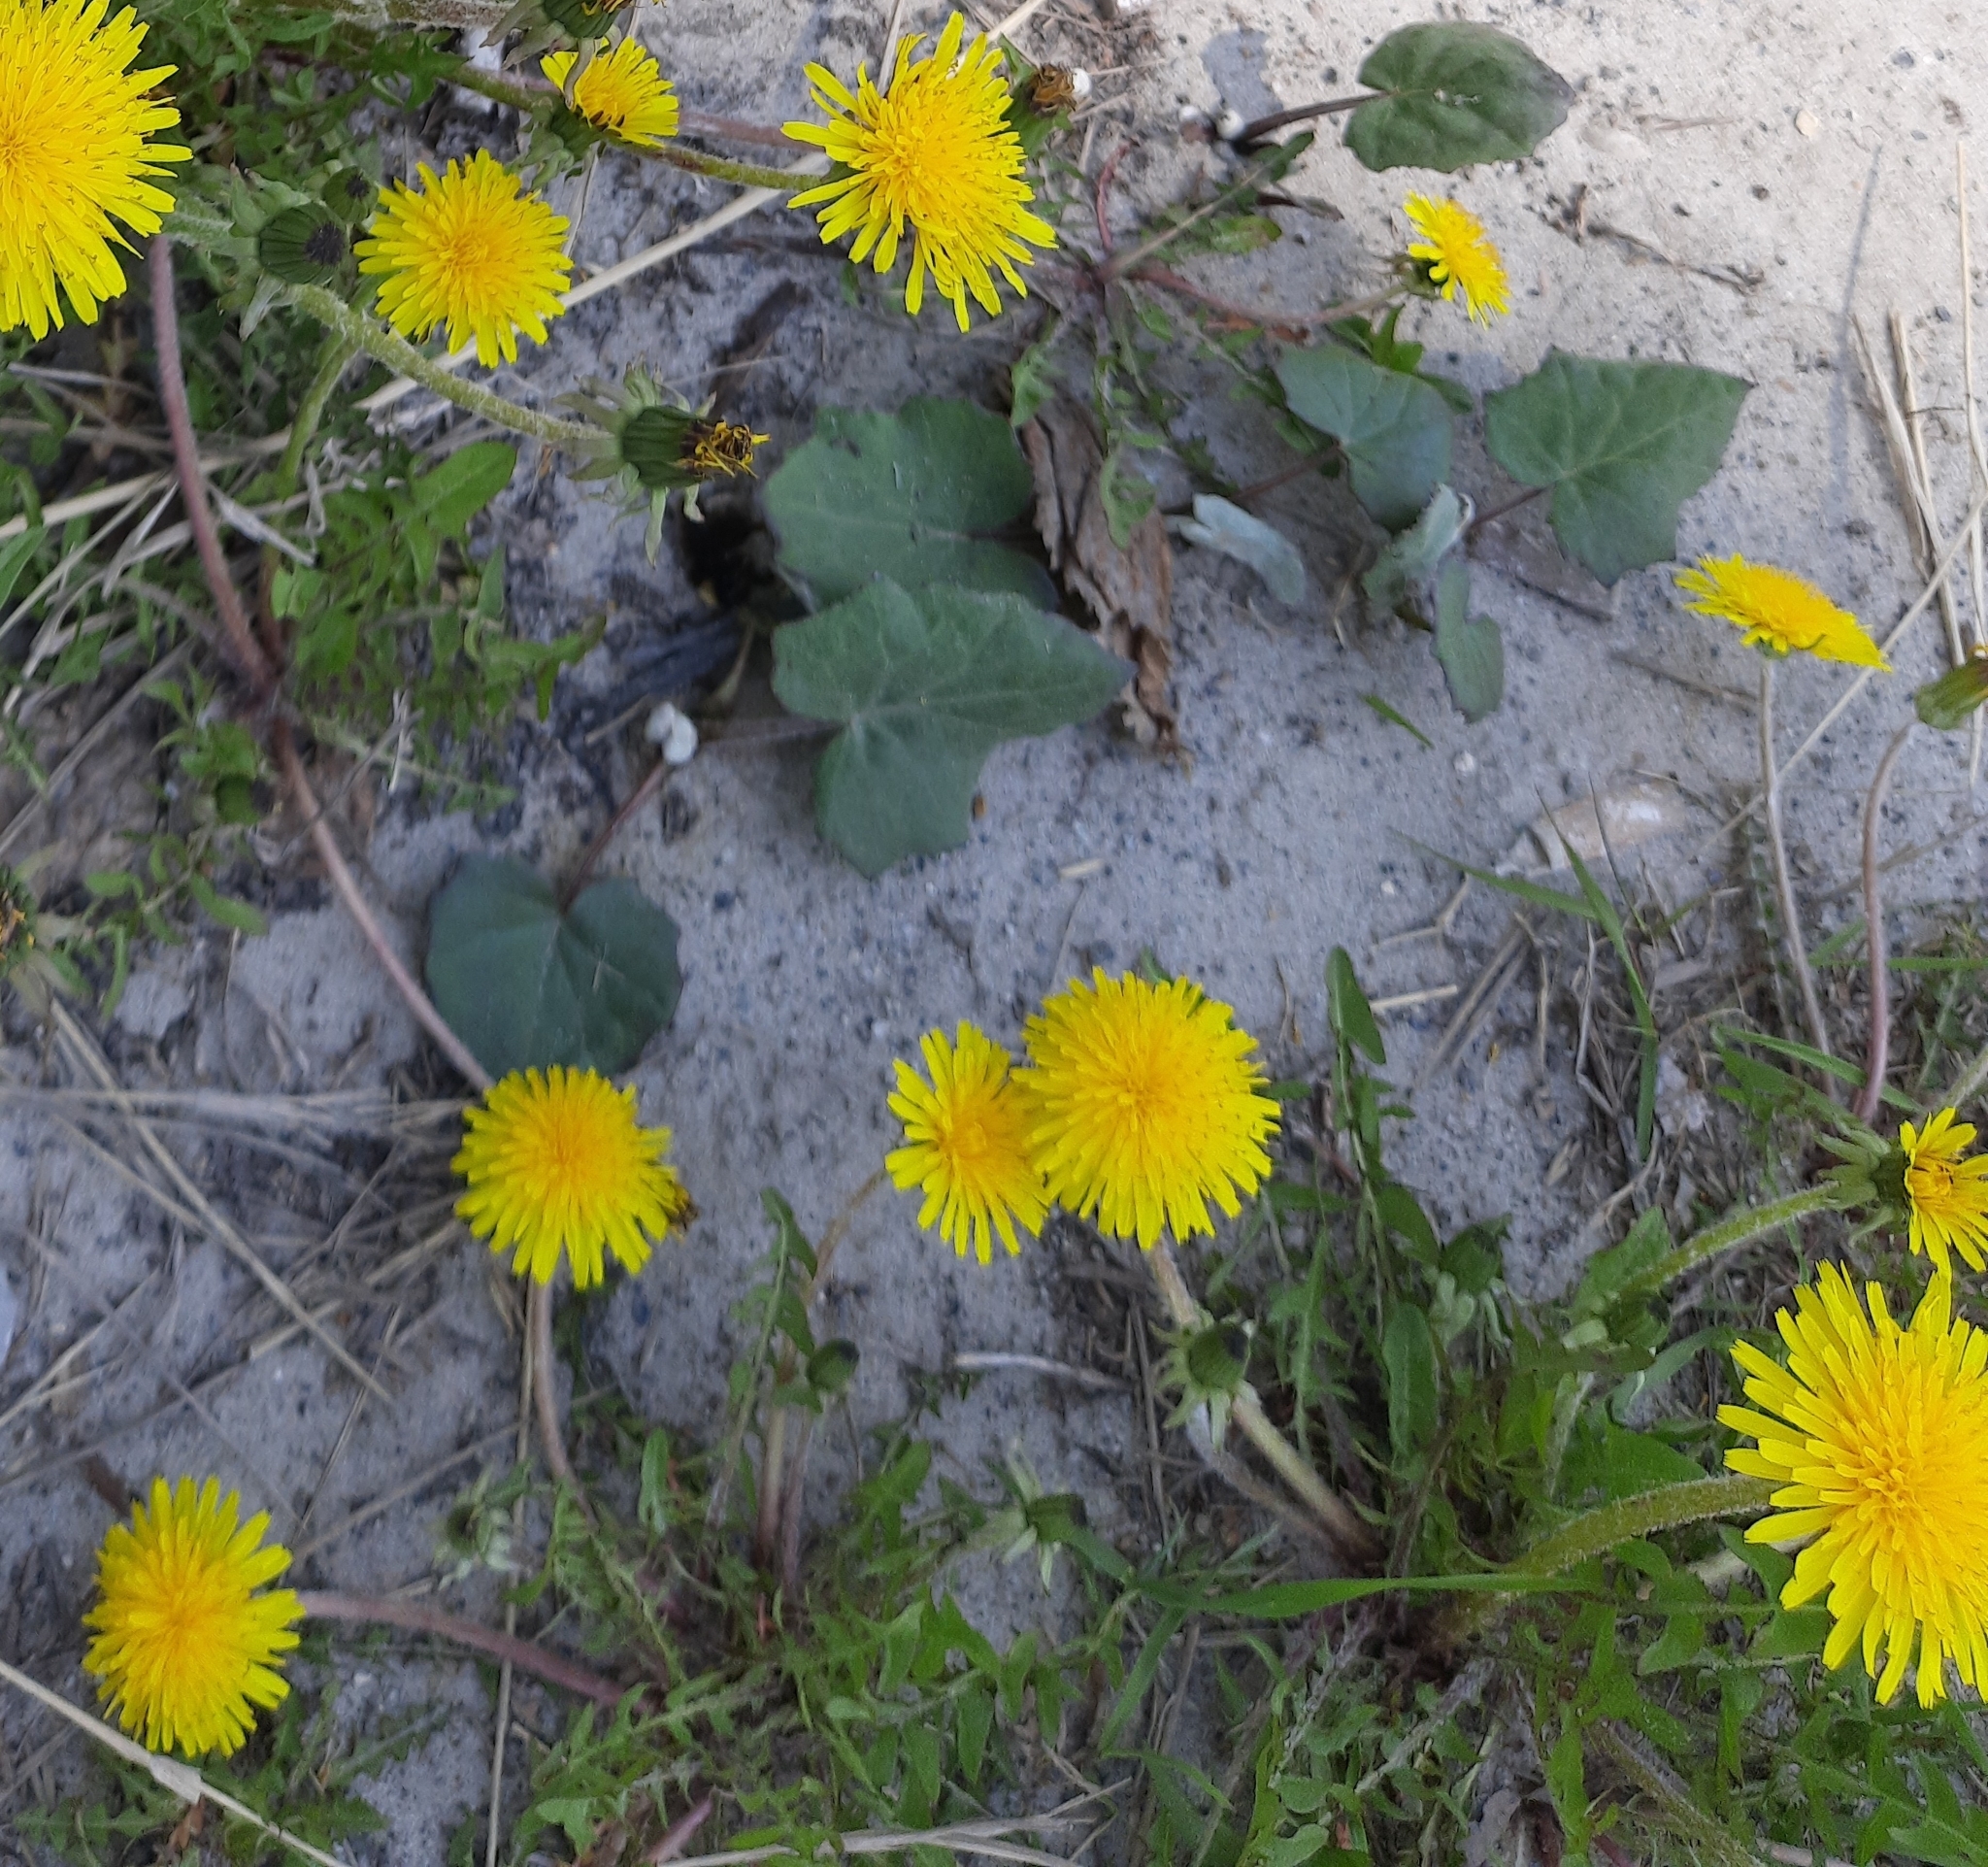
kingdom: Plantae
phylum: Tracheophyta
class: Magnoliopsida
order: Asterales
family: Asteraceae
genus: Taraxacum
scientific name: Taraxacum officinale
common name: Common dandelion
